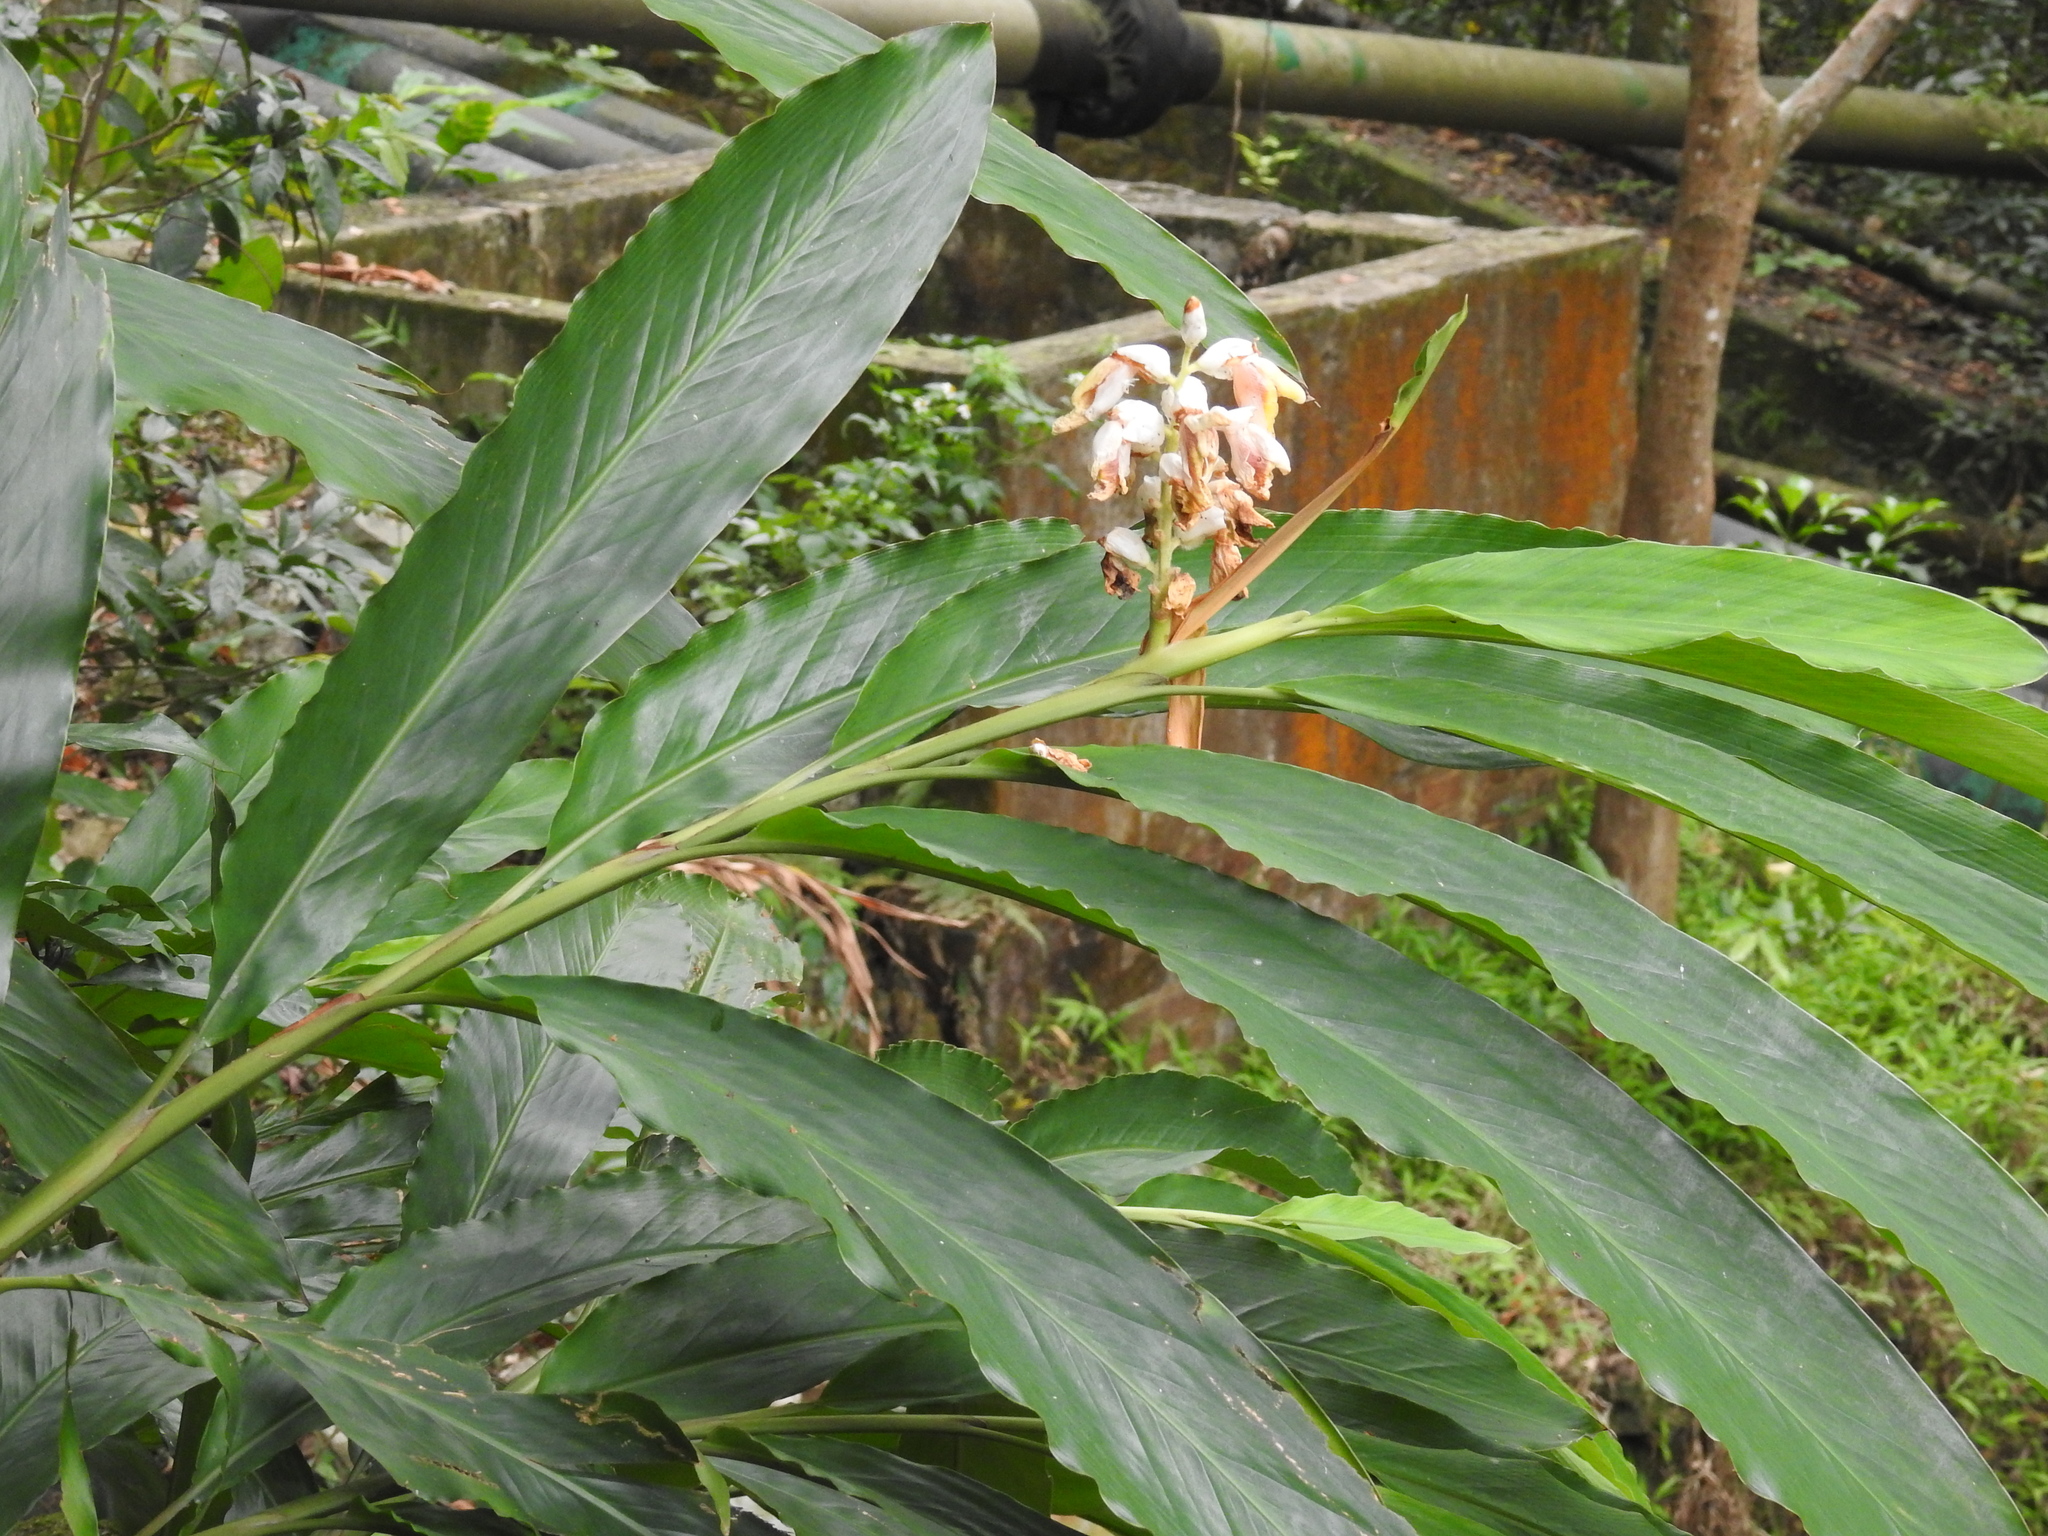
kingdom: Plantae
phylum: Tracheophyta
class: Liliopsida
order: Zingiberales
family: Zingiberaceae
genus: Alpinia
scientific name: Alpinia hainanensis
